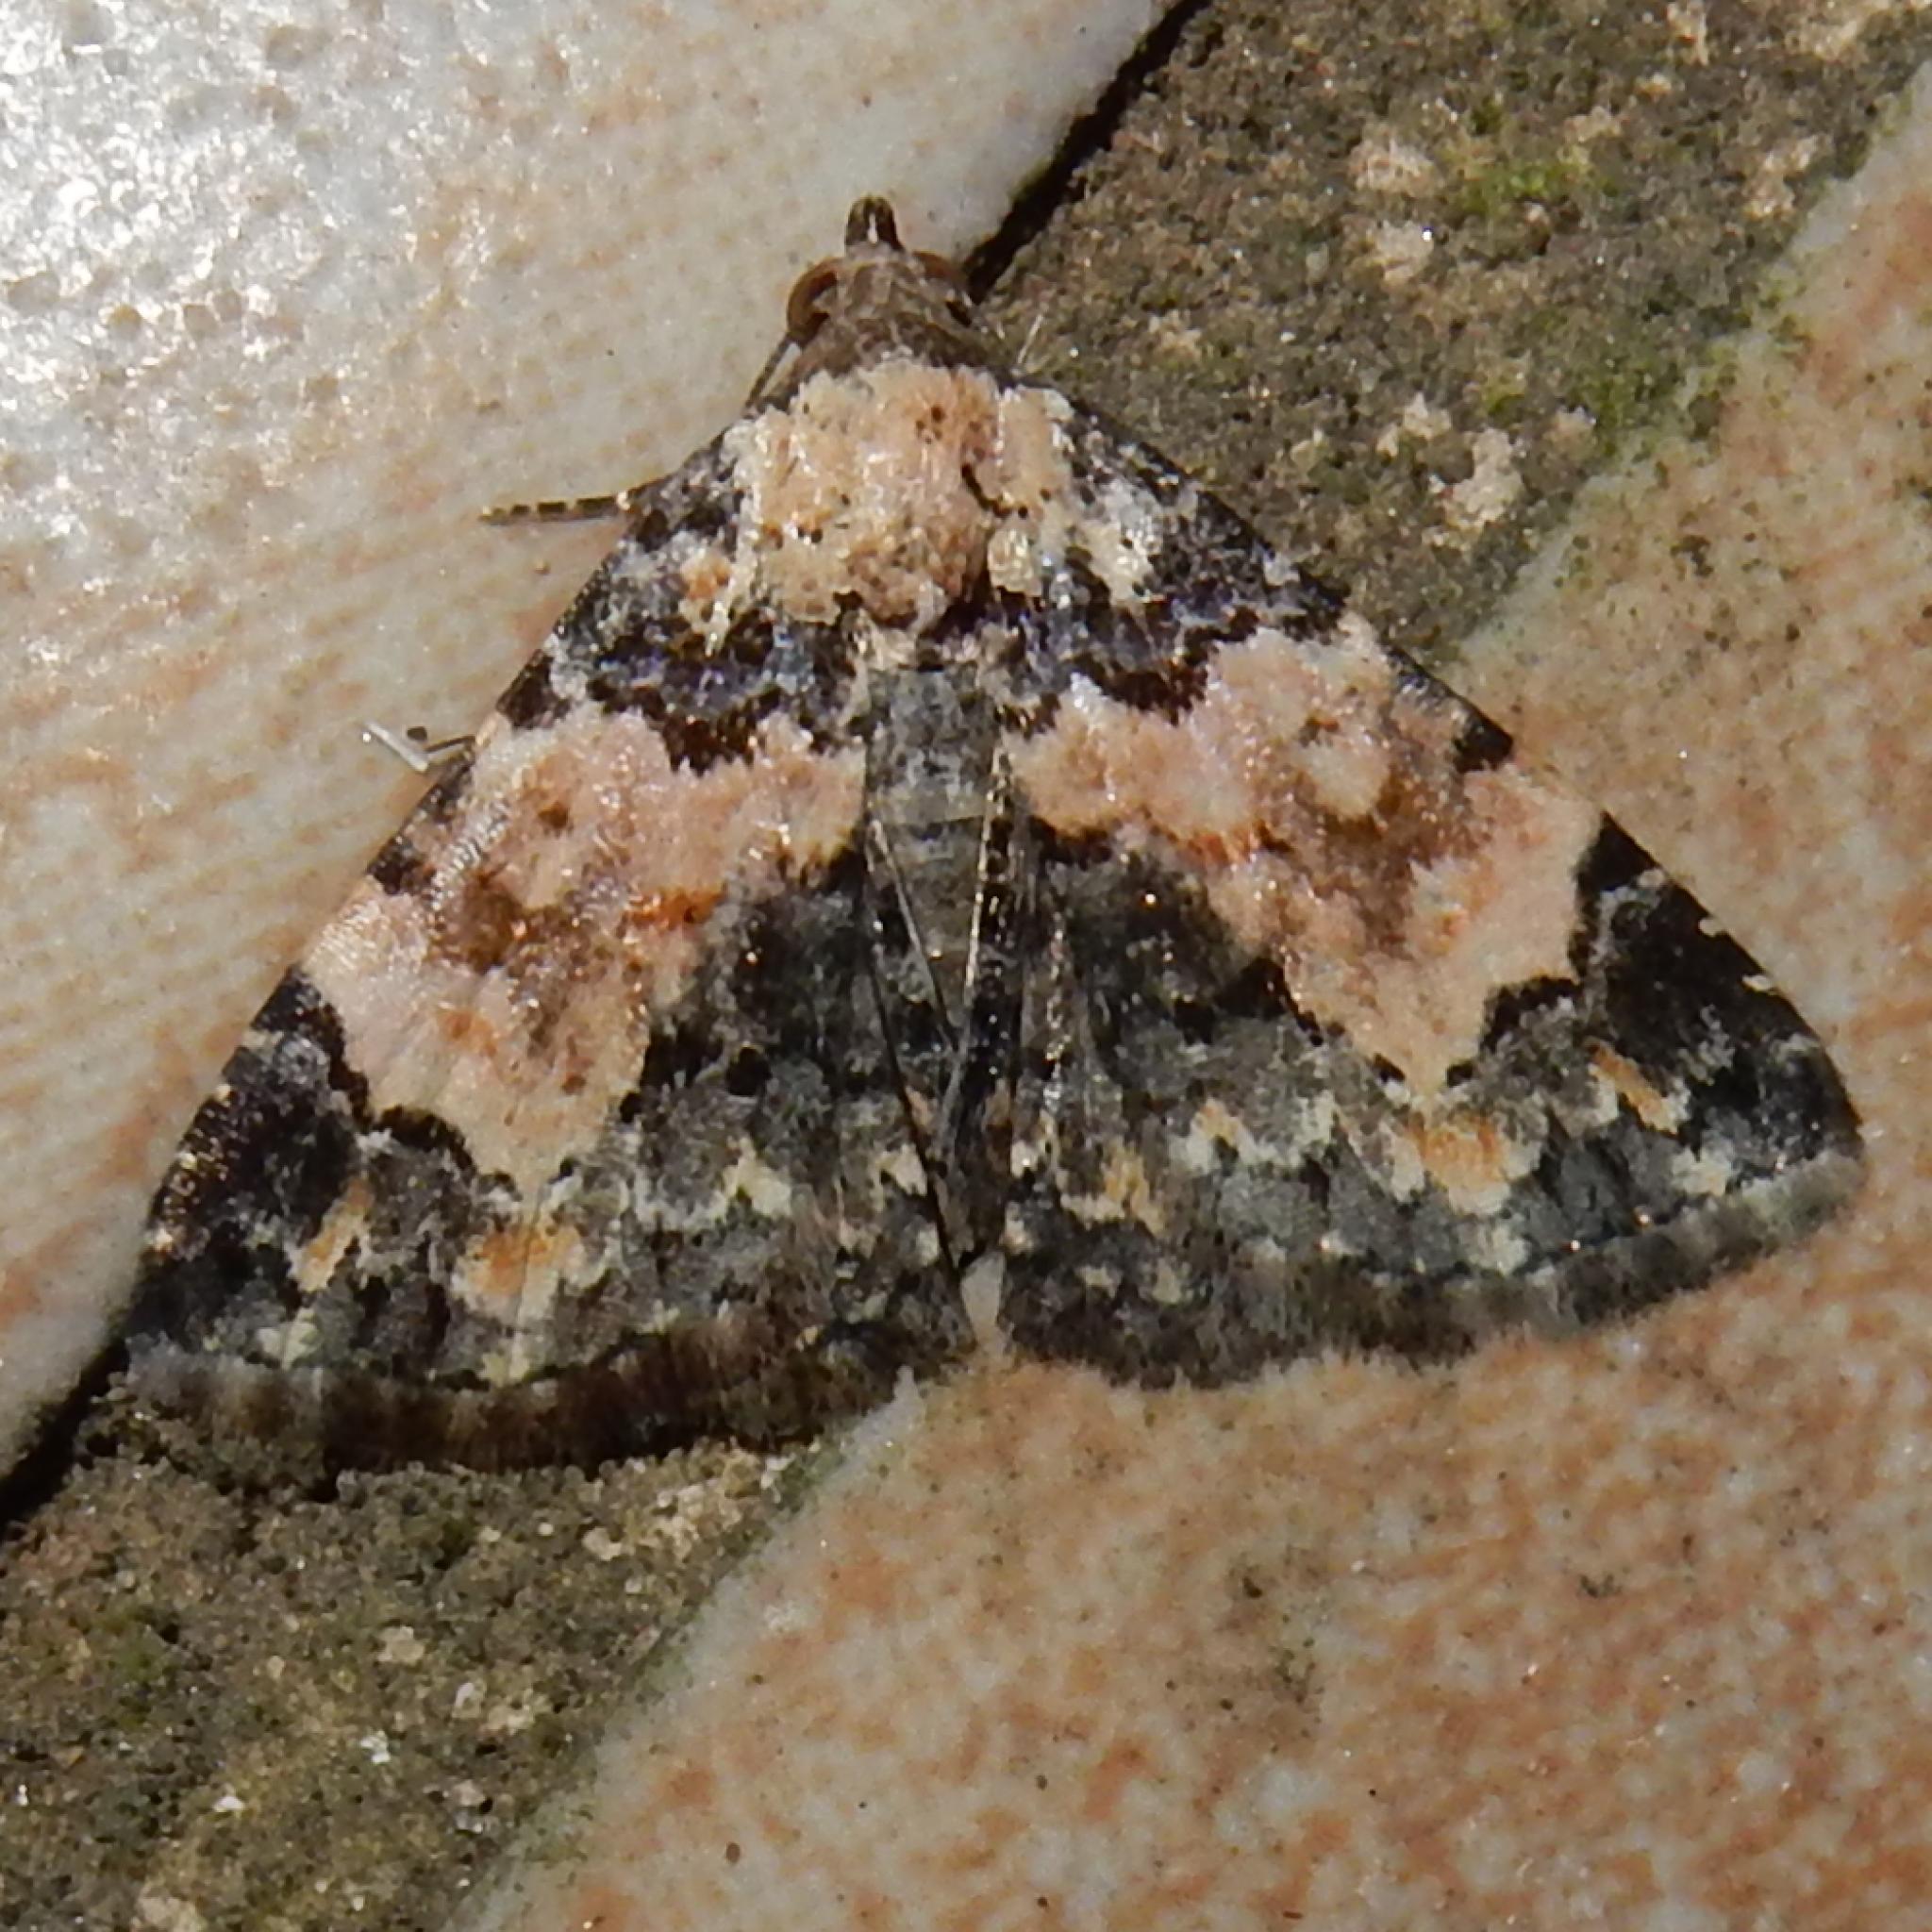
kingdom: Animalia
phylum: Arthropoda
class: Insecta
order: Lepidoptera
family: Noctuidae
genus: Eublemma
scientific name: Eublemma decora
